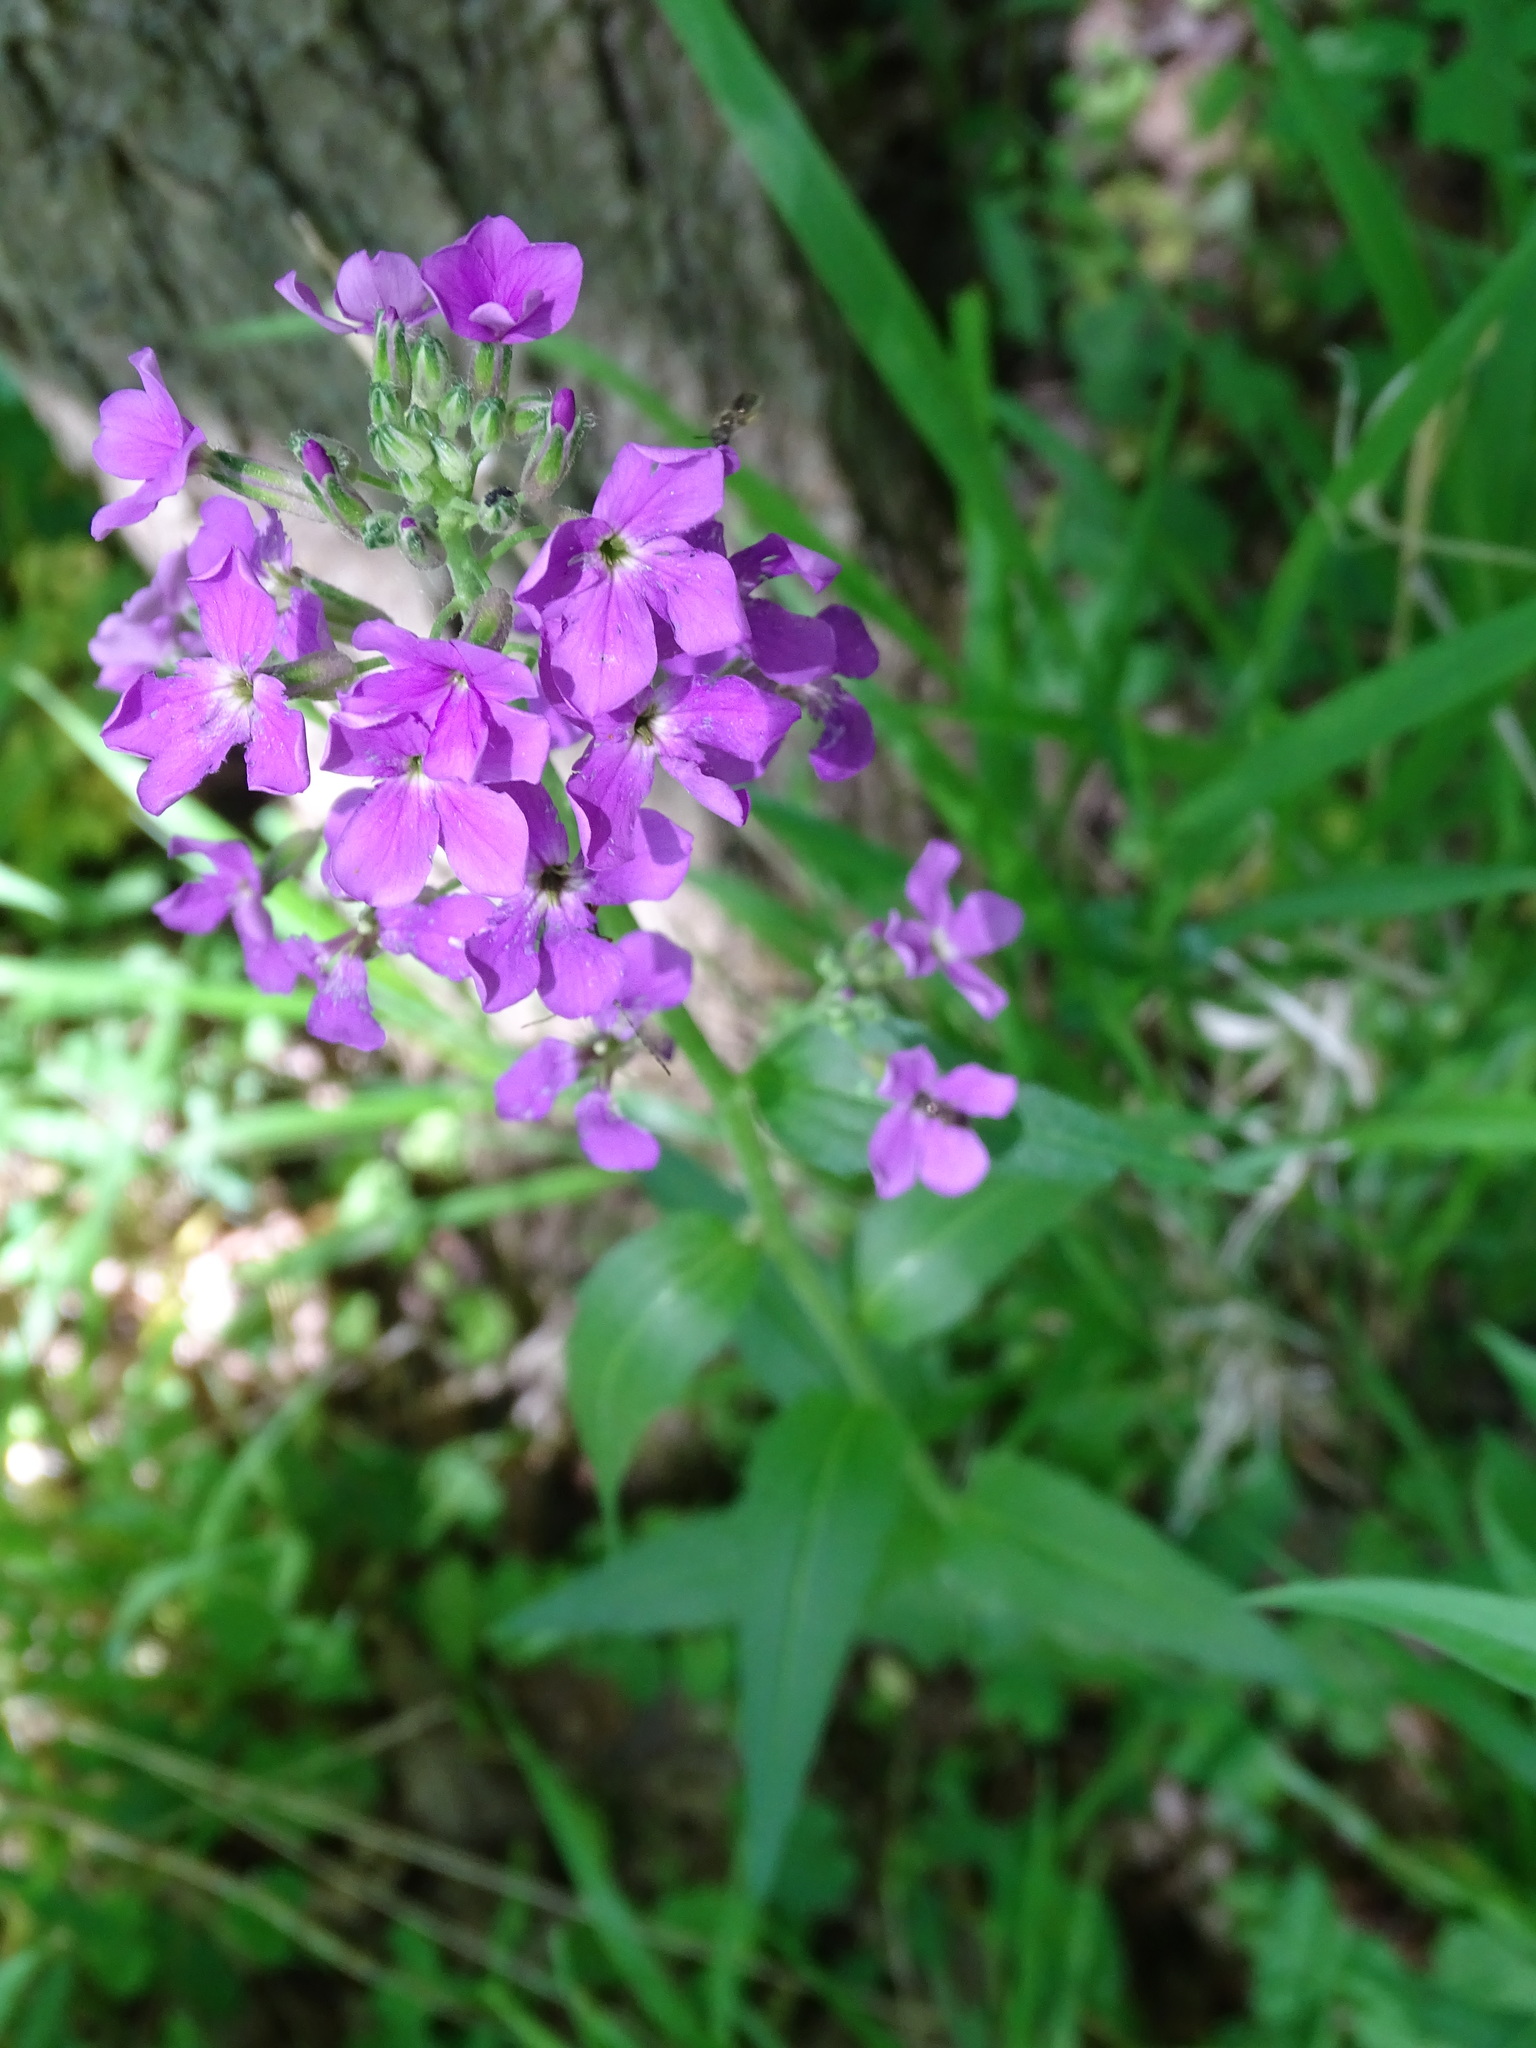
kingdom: Plantae
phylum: Tracheophyta
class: Magnoliopsida
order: Brassicales
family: Brassicaceae
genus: Hesperis
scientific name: Hesperis matronalis
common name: Dame's-violet
